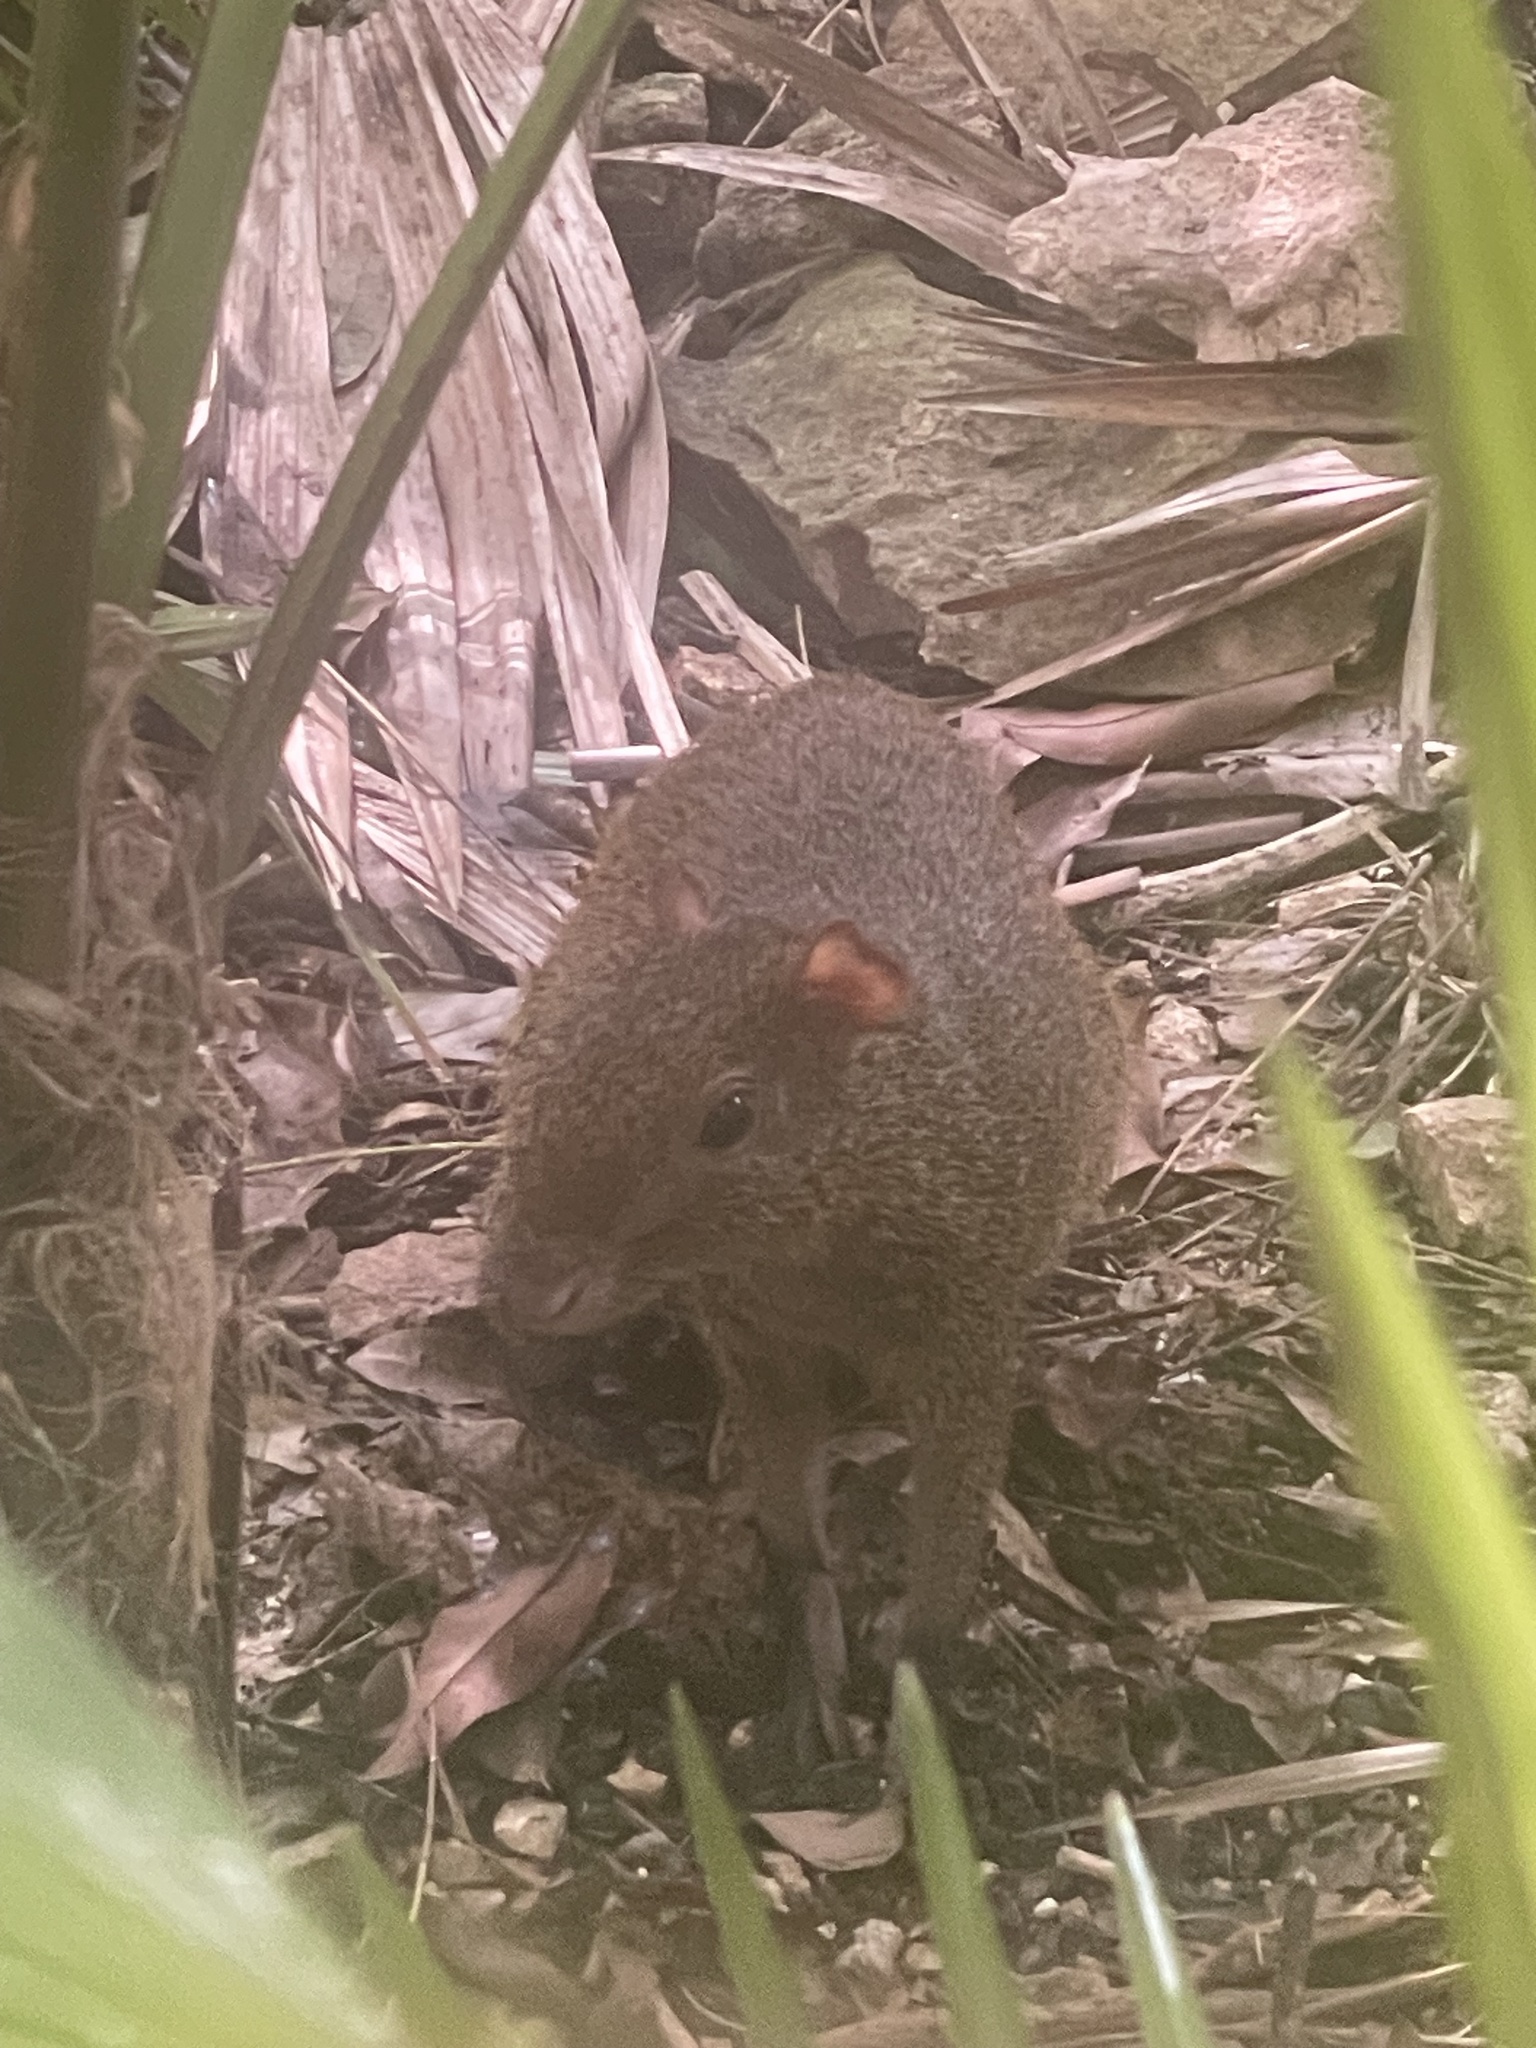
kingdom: Animalia
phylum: Chordata
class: Mammalia
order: Rodentia
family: Dasyproctidae
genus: Dasyprocta
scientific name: Dasyprocta punctata
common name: Central american agouti
